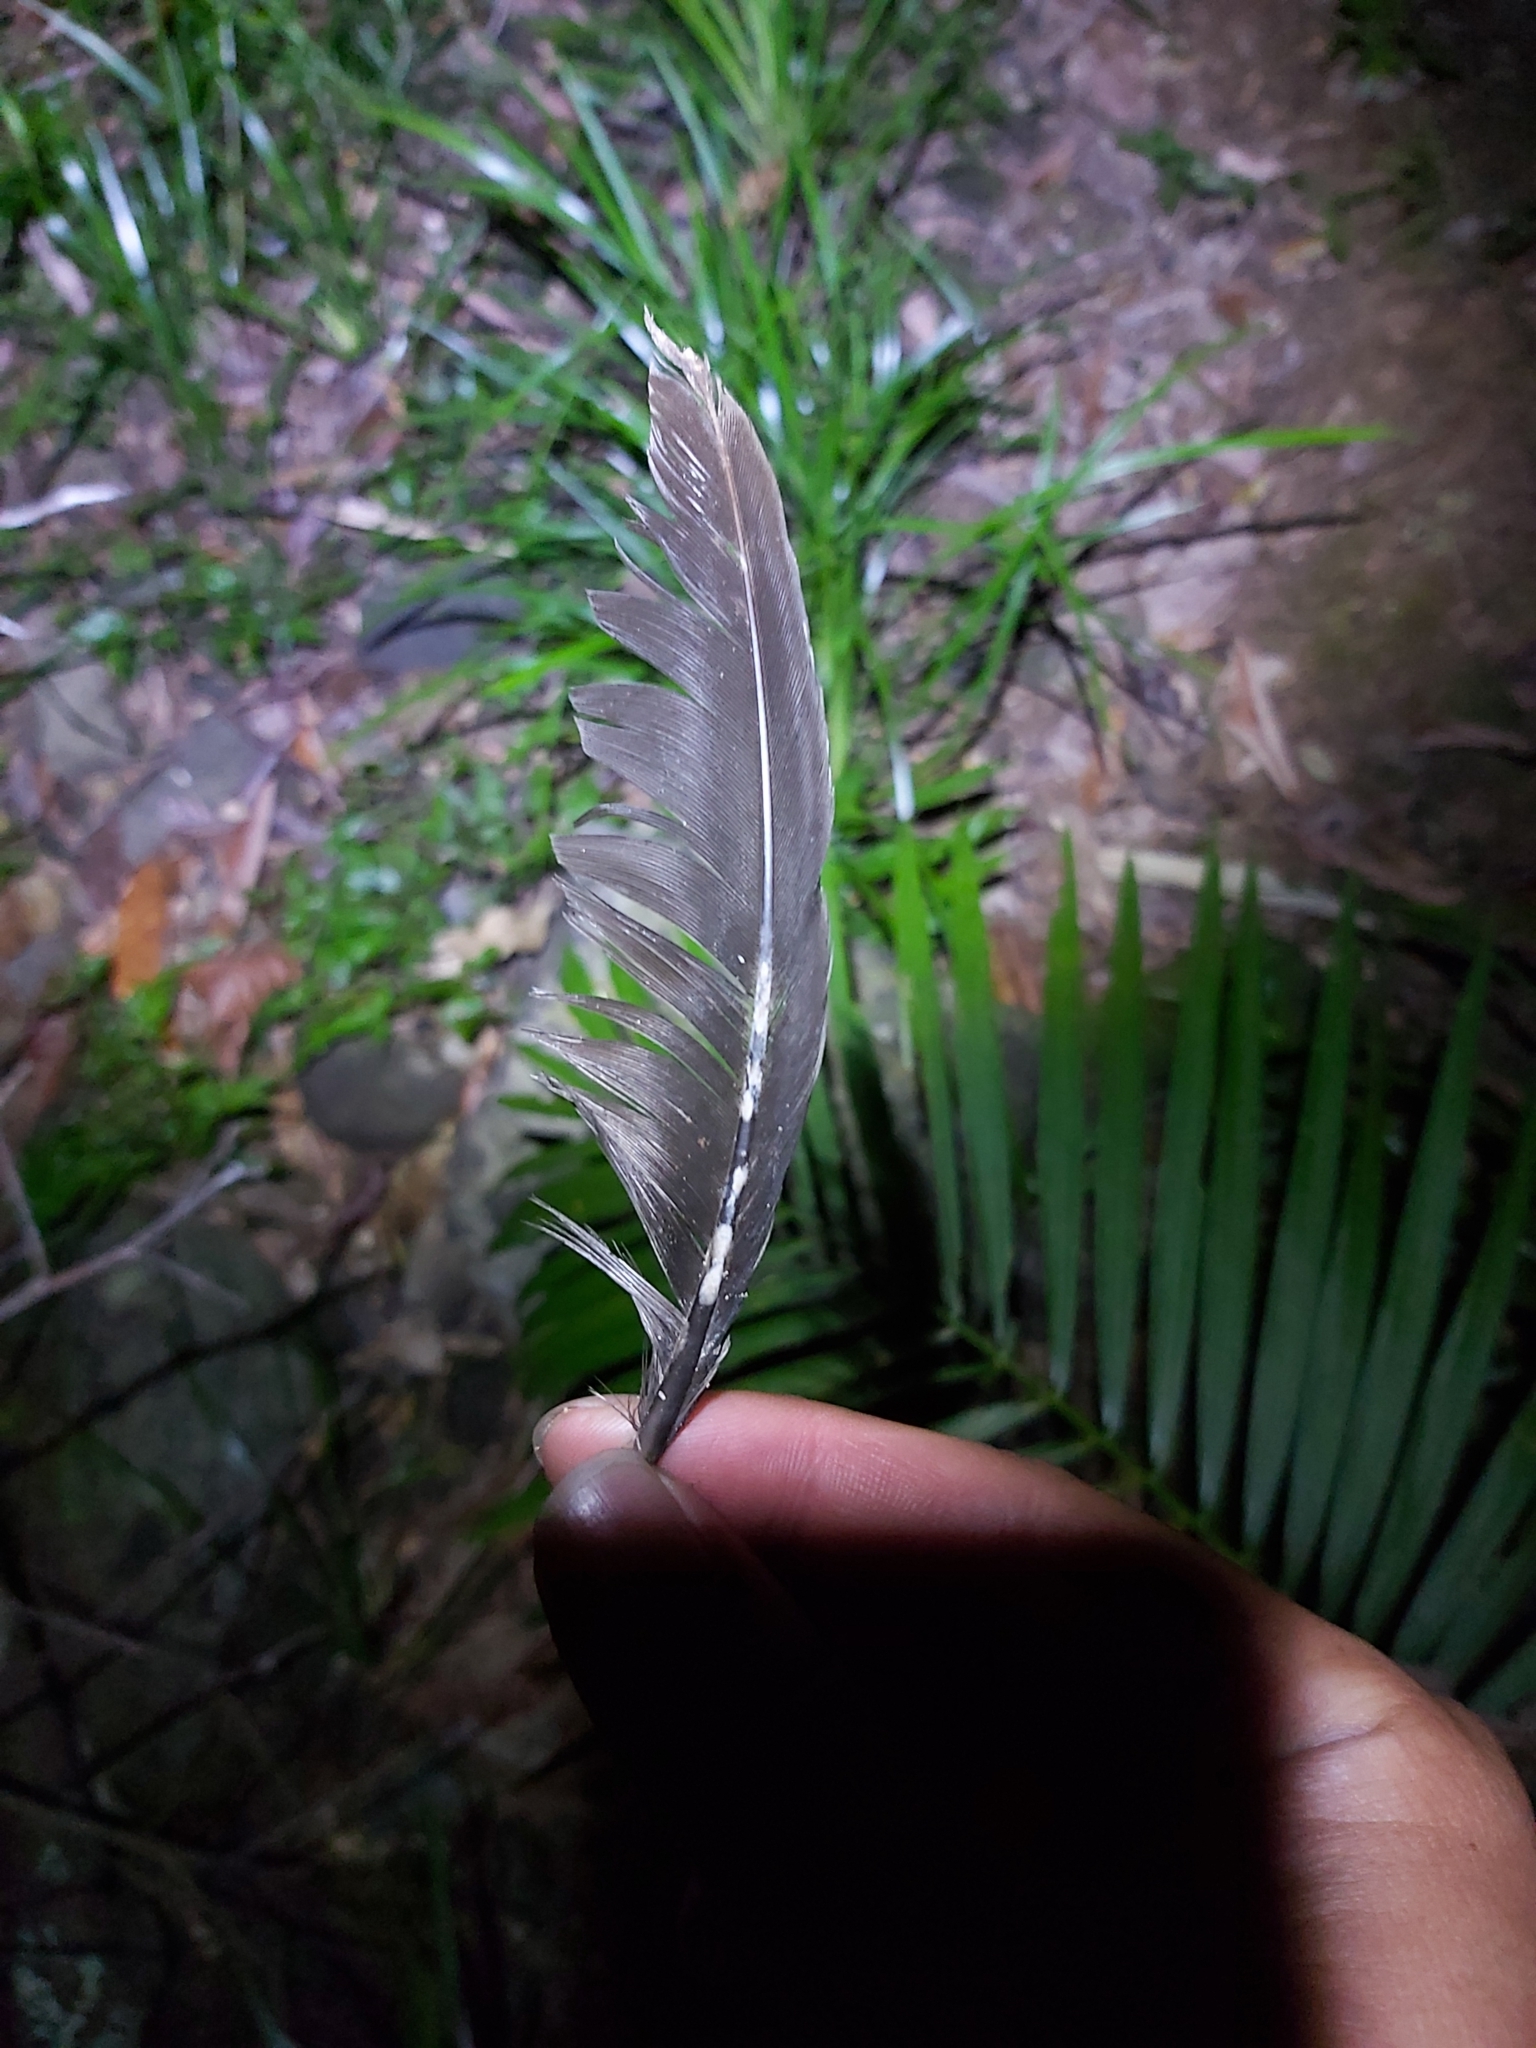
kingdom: Animalia
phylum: Chordata
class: Aves
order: Galliformes
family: Megapodiidae
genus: Alectura
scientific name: Alectura lathami
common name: Australian brushturkey
